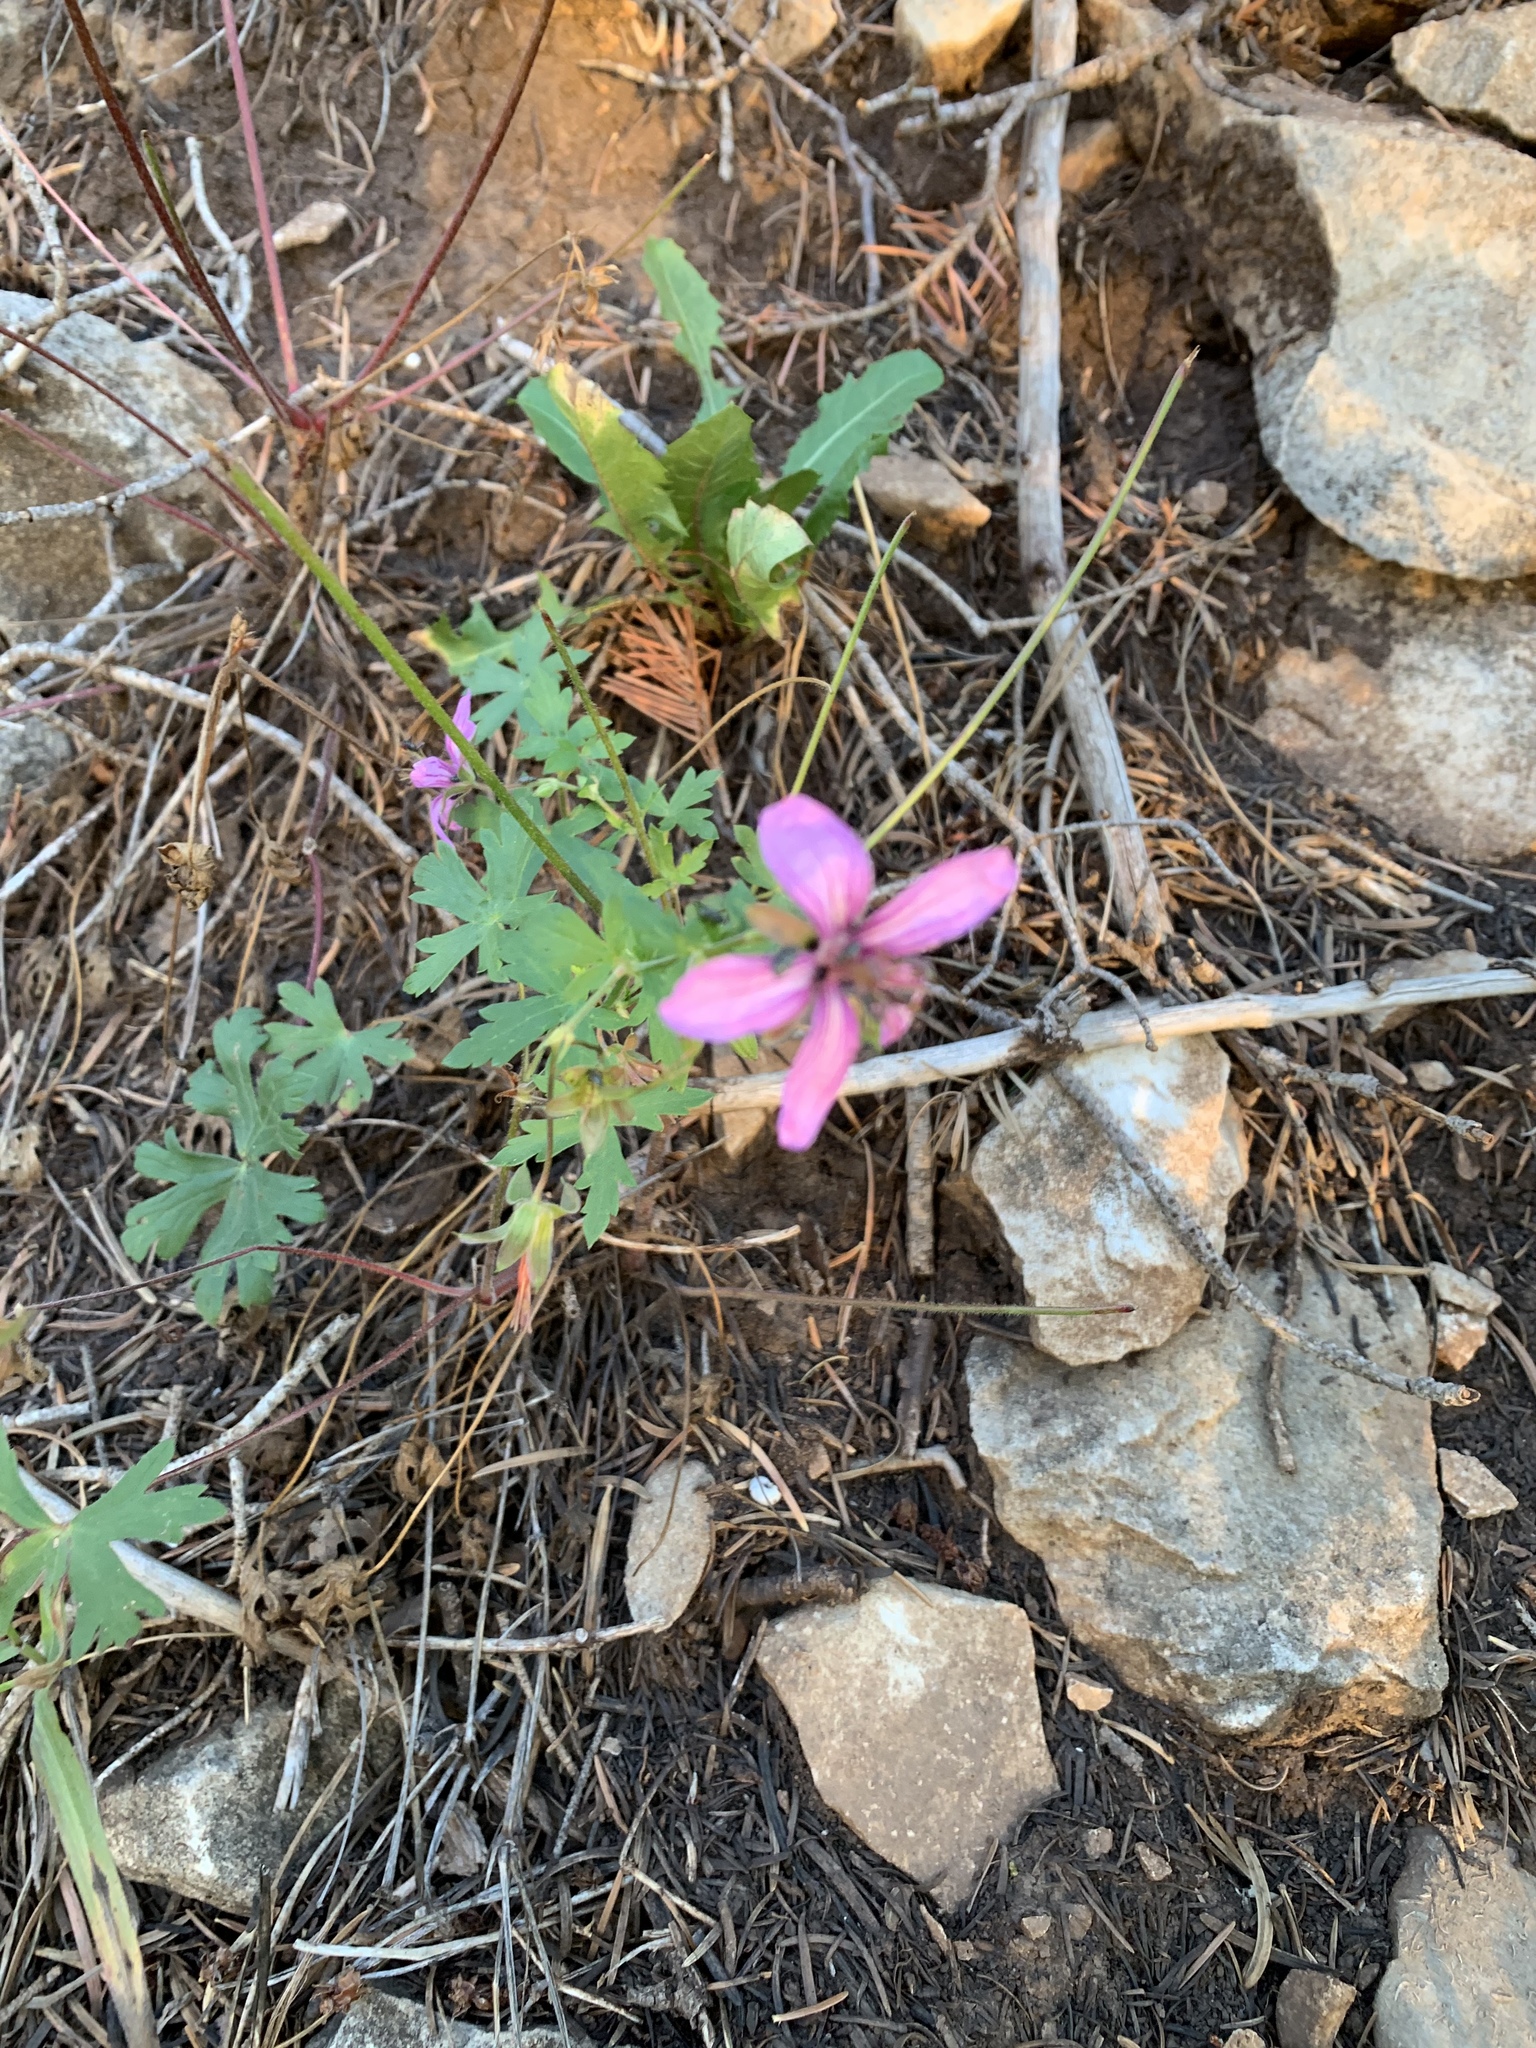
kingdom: Plantae
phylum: Tracheophyta
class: Magnoliopsida
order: Geraniales
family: Geraniaceae
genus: Geranium
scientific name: Geranium caespitosum
